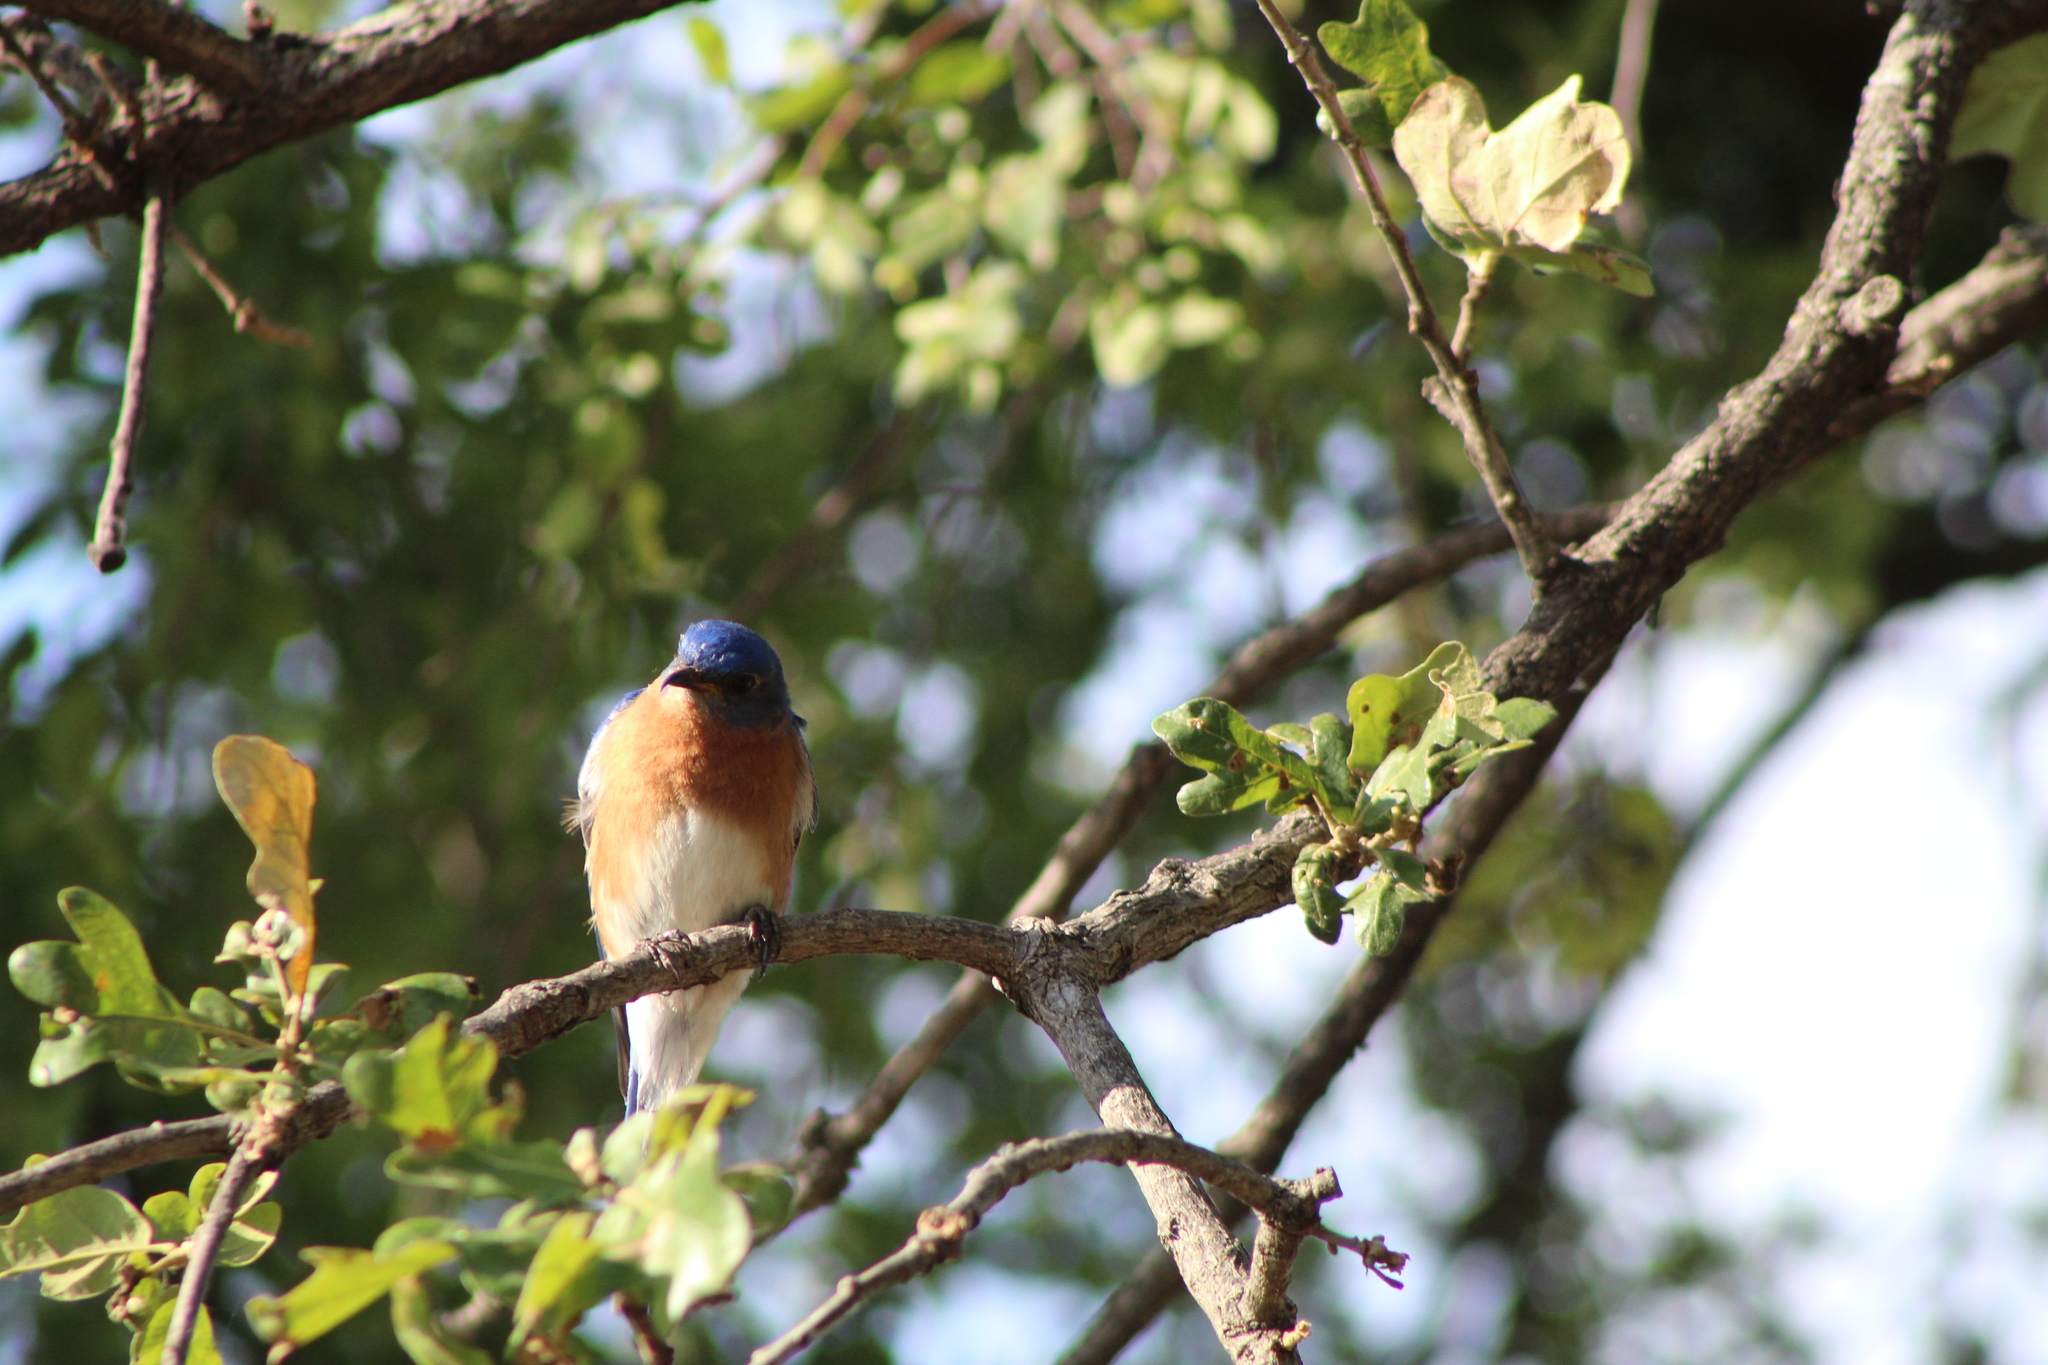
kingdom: Animalia
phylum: Chordata
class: Aves
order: Passeriformes
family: Turdidae
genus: Sialia
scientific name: Sialia sialis
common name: Eastern bluebird
